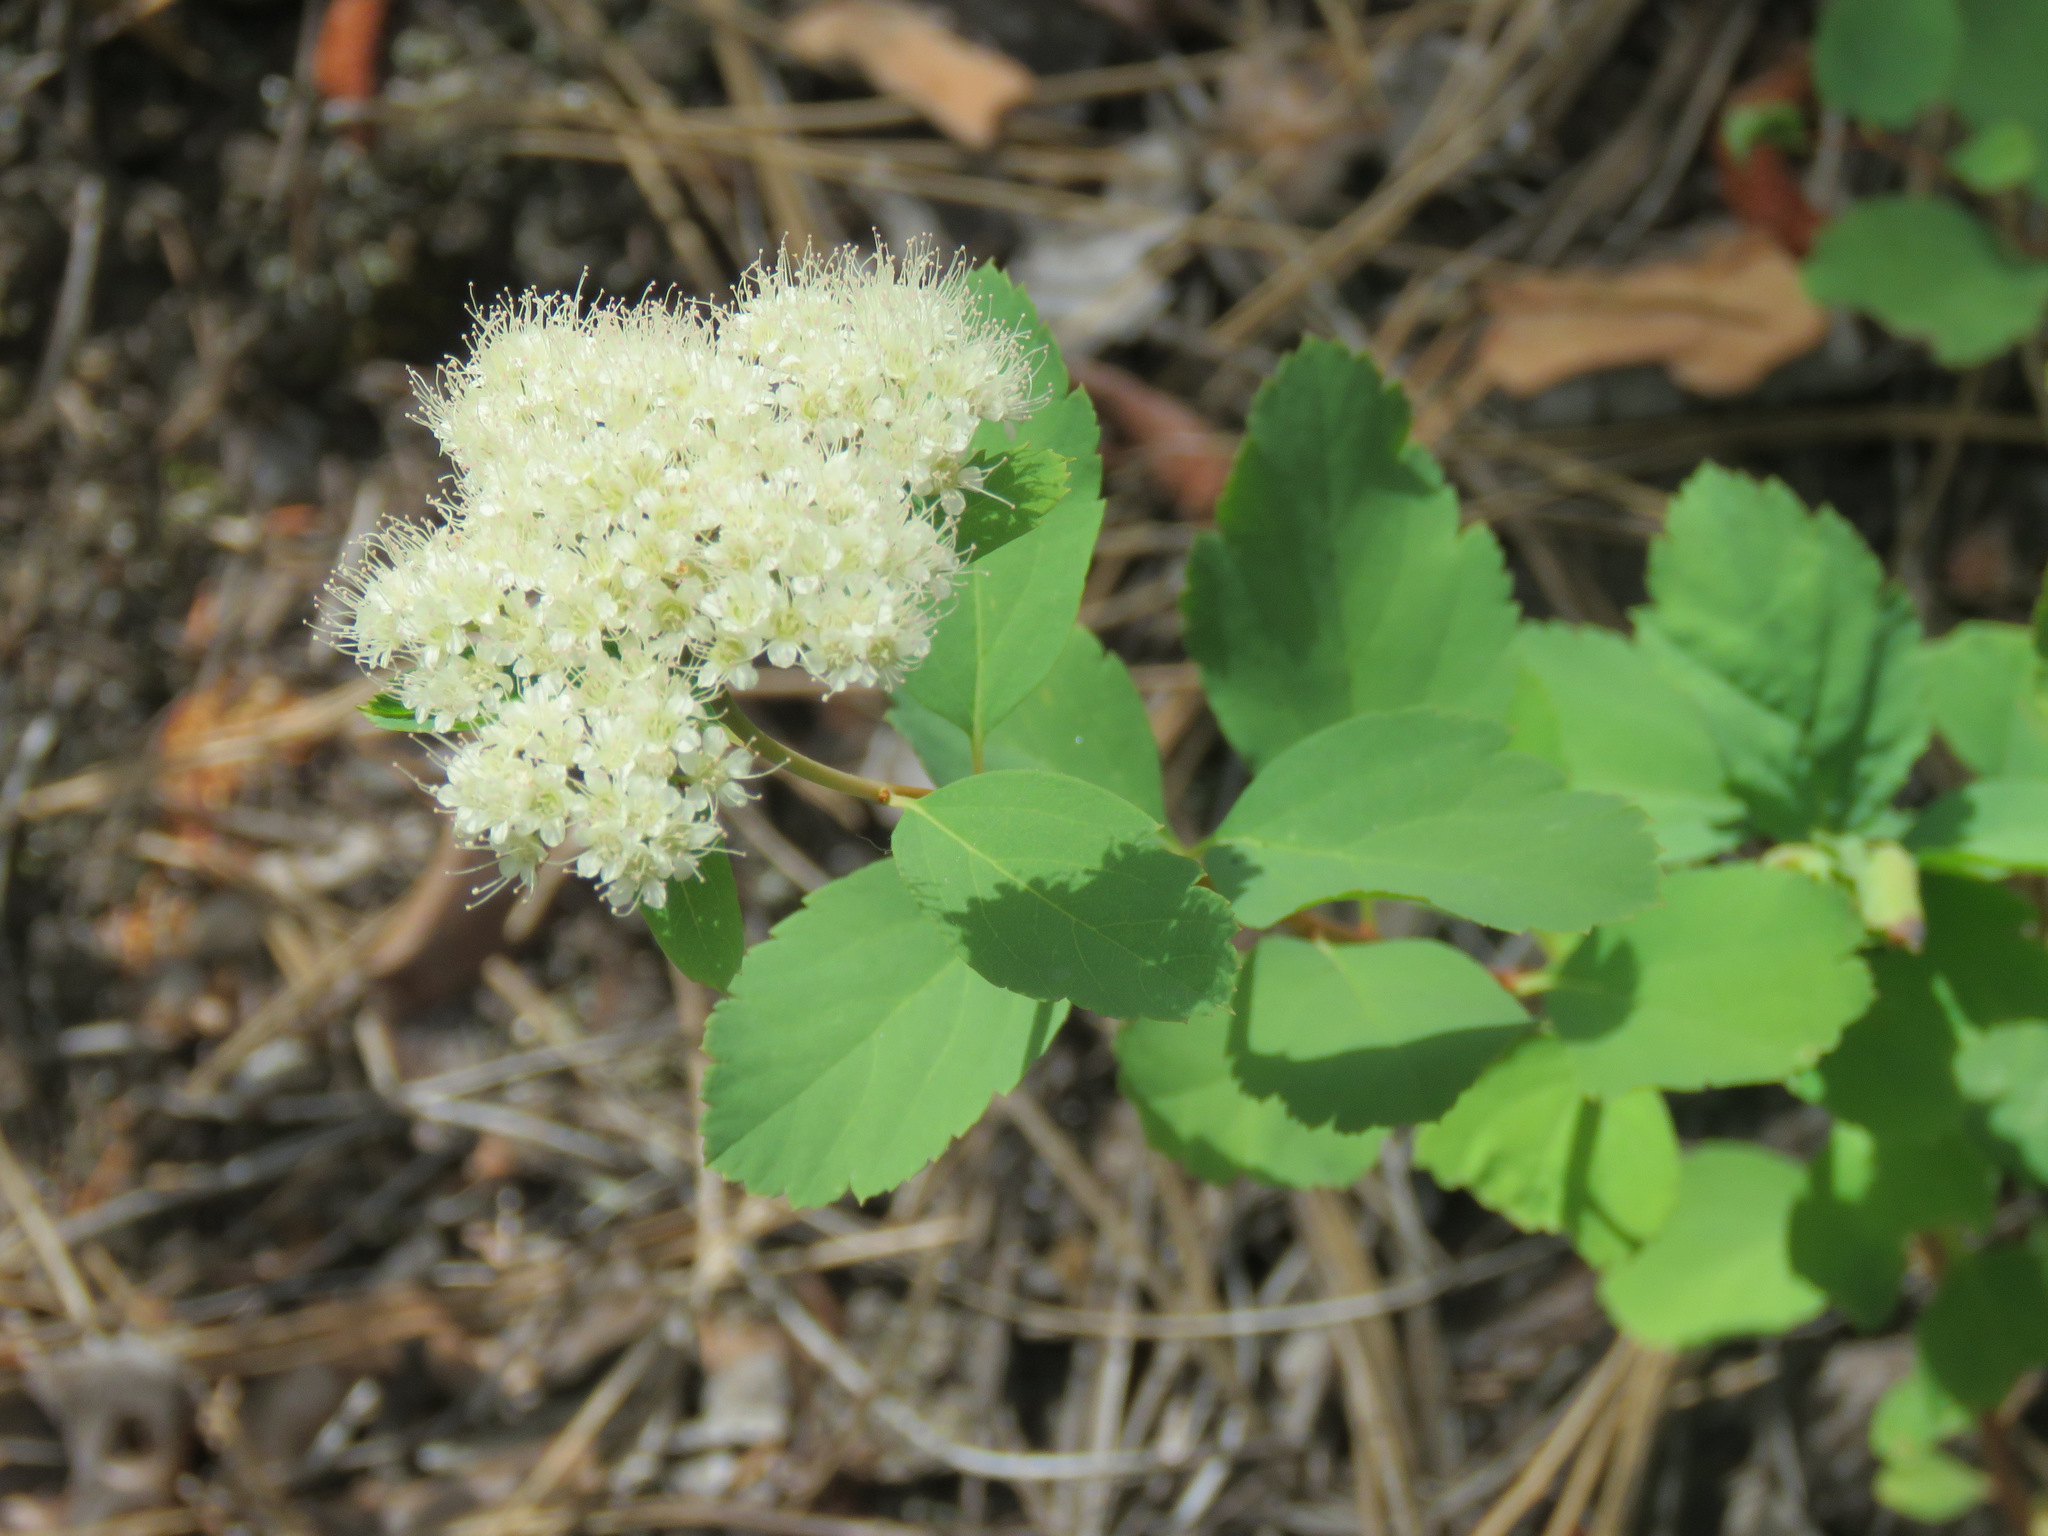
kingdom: Plantae
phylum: Tracheophyta
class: Magnoliopsida
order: Rosales
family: Rosaceae
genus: Spiraea
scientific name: Spiraea lucida
